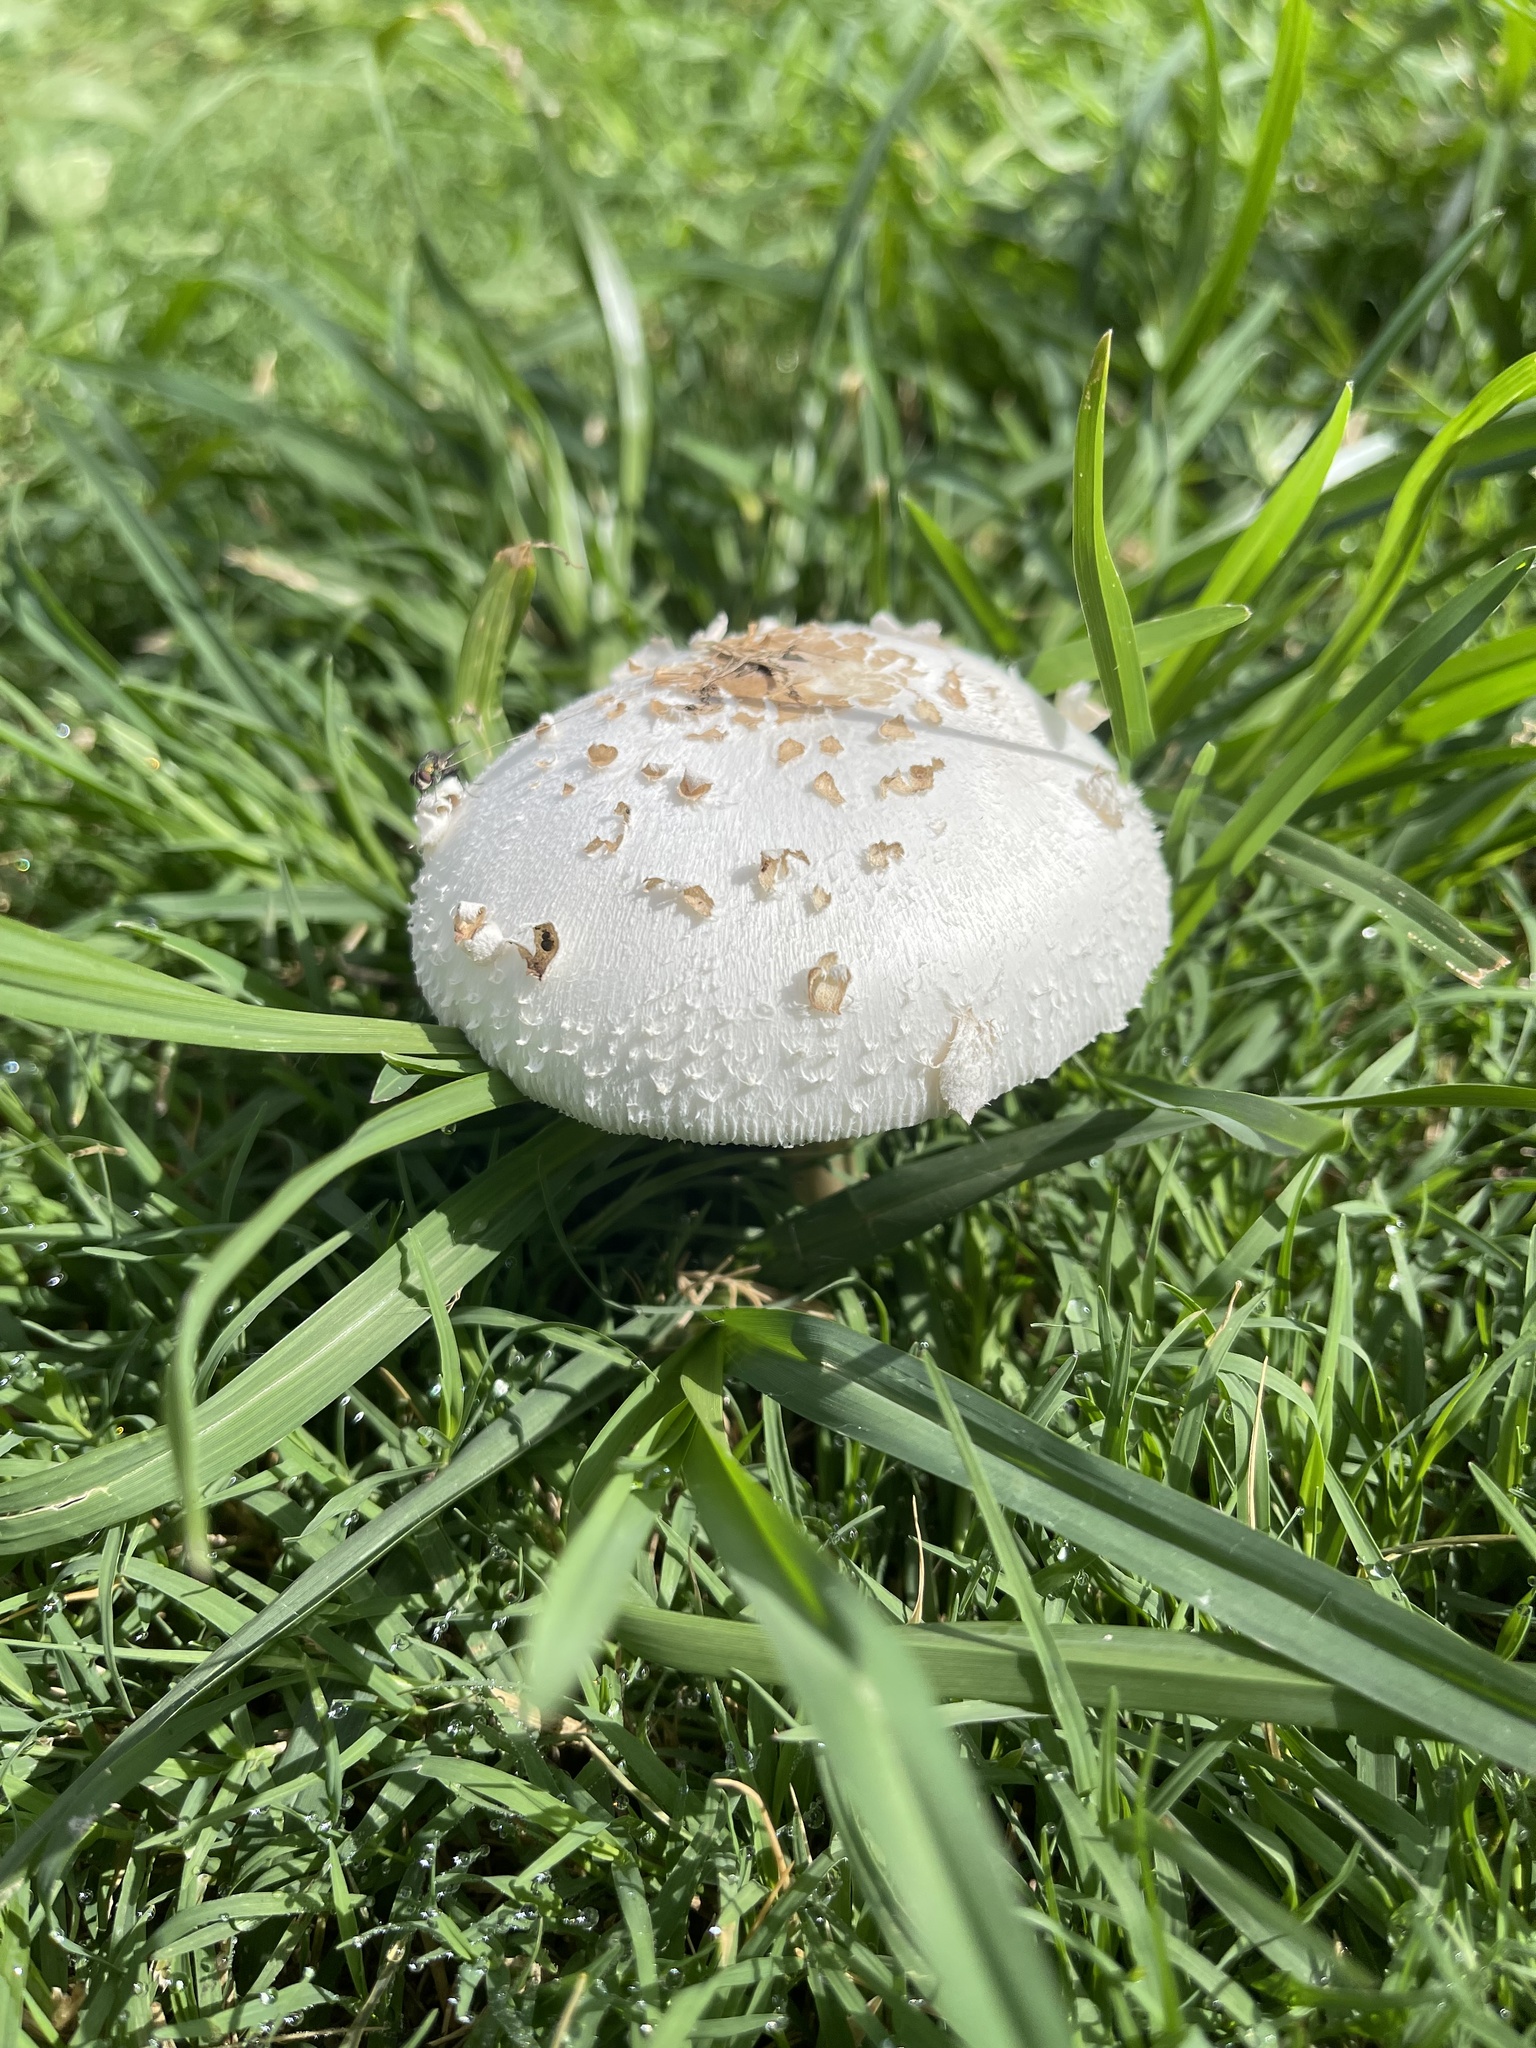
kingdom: Fungi
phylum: Basidiomycota
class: Agaricomycetes
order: Agaricales
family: Agaricaceae
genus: Chlorophyllum
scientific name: Chlorophyllum molybdites
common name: False parasol
